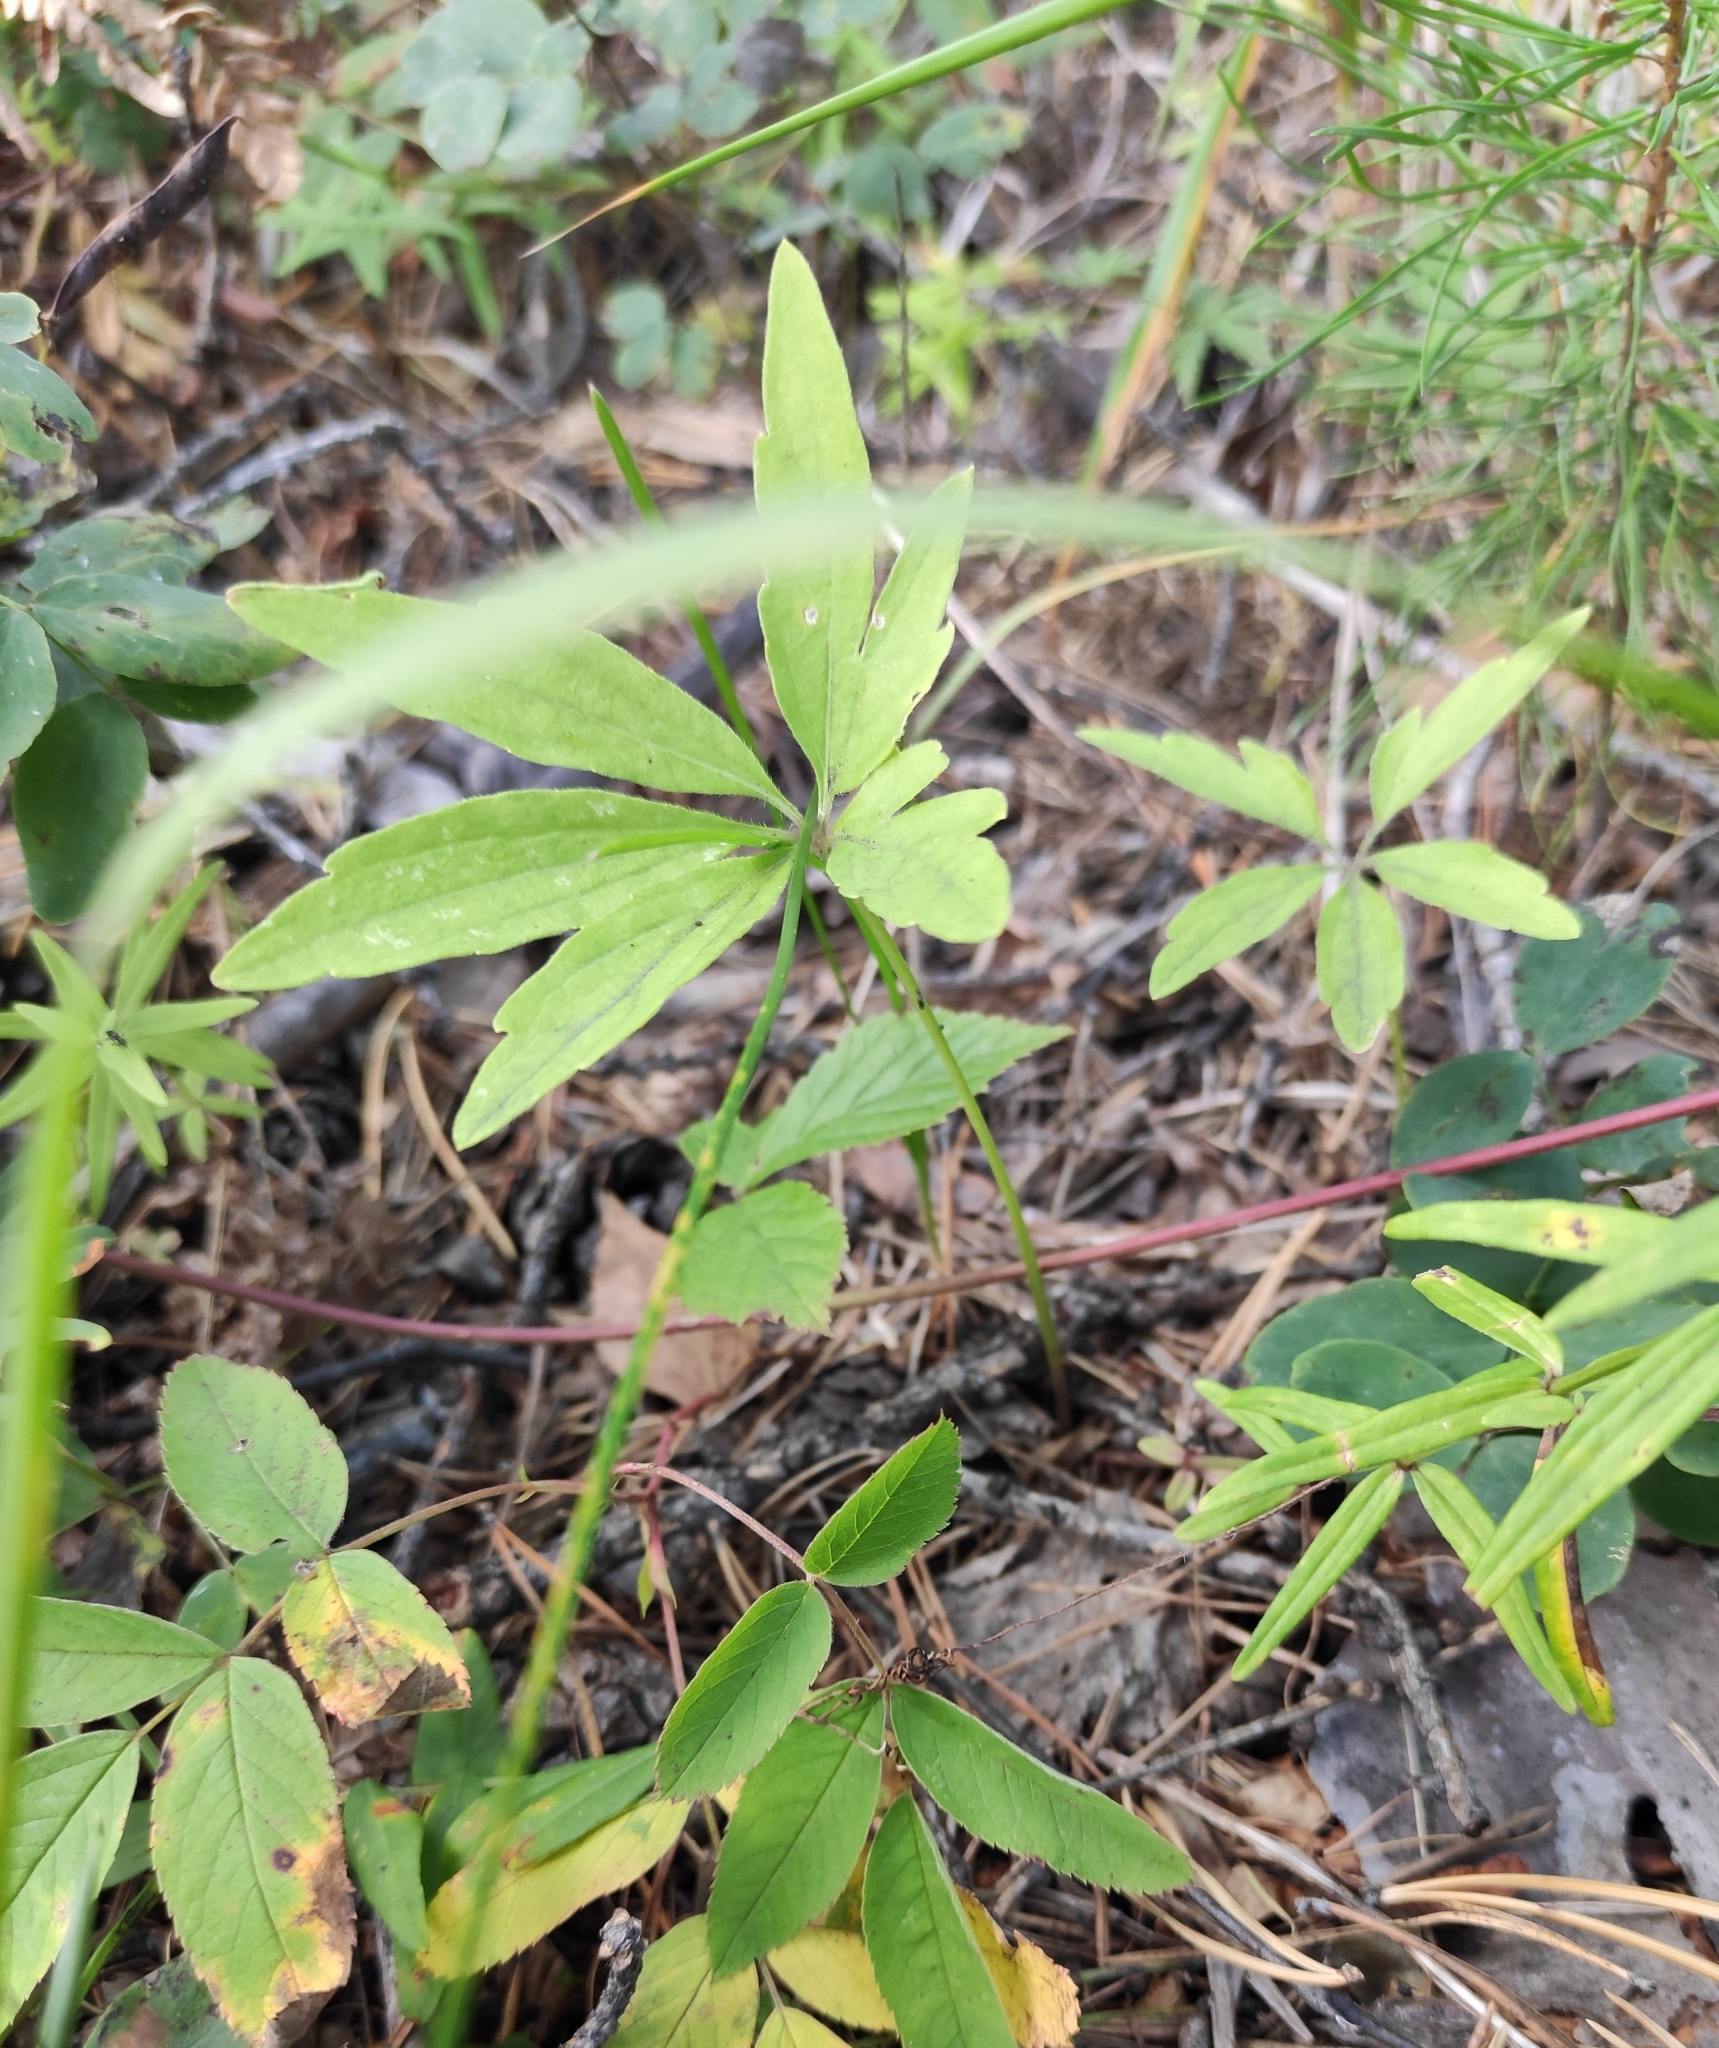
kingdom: Plantae
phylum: Tracheophyta
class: Magnoliopsida
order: Malpighiales
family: Violaceae
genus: Viola
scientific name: Viola dactyloides
